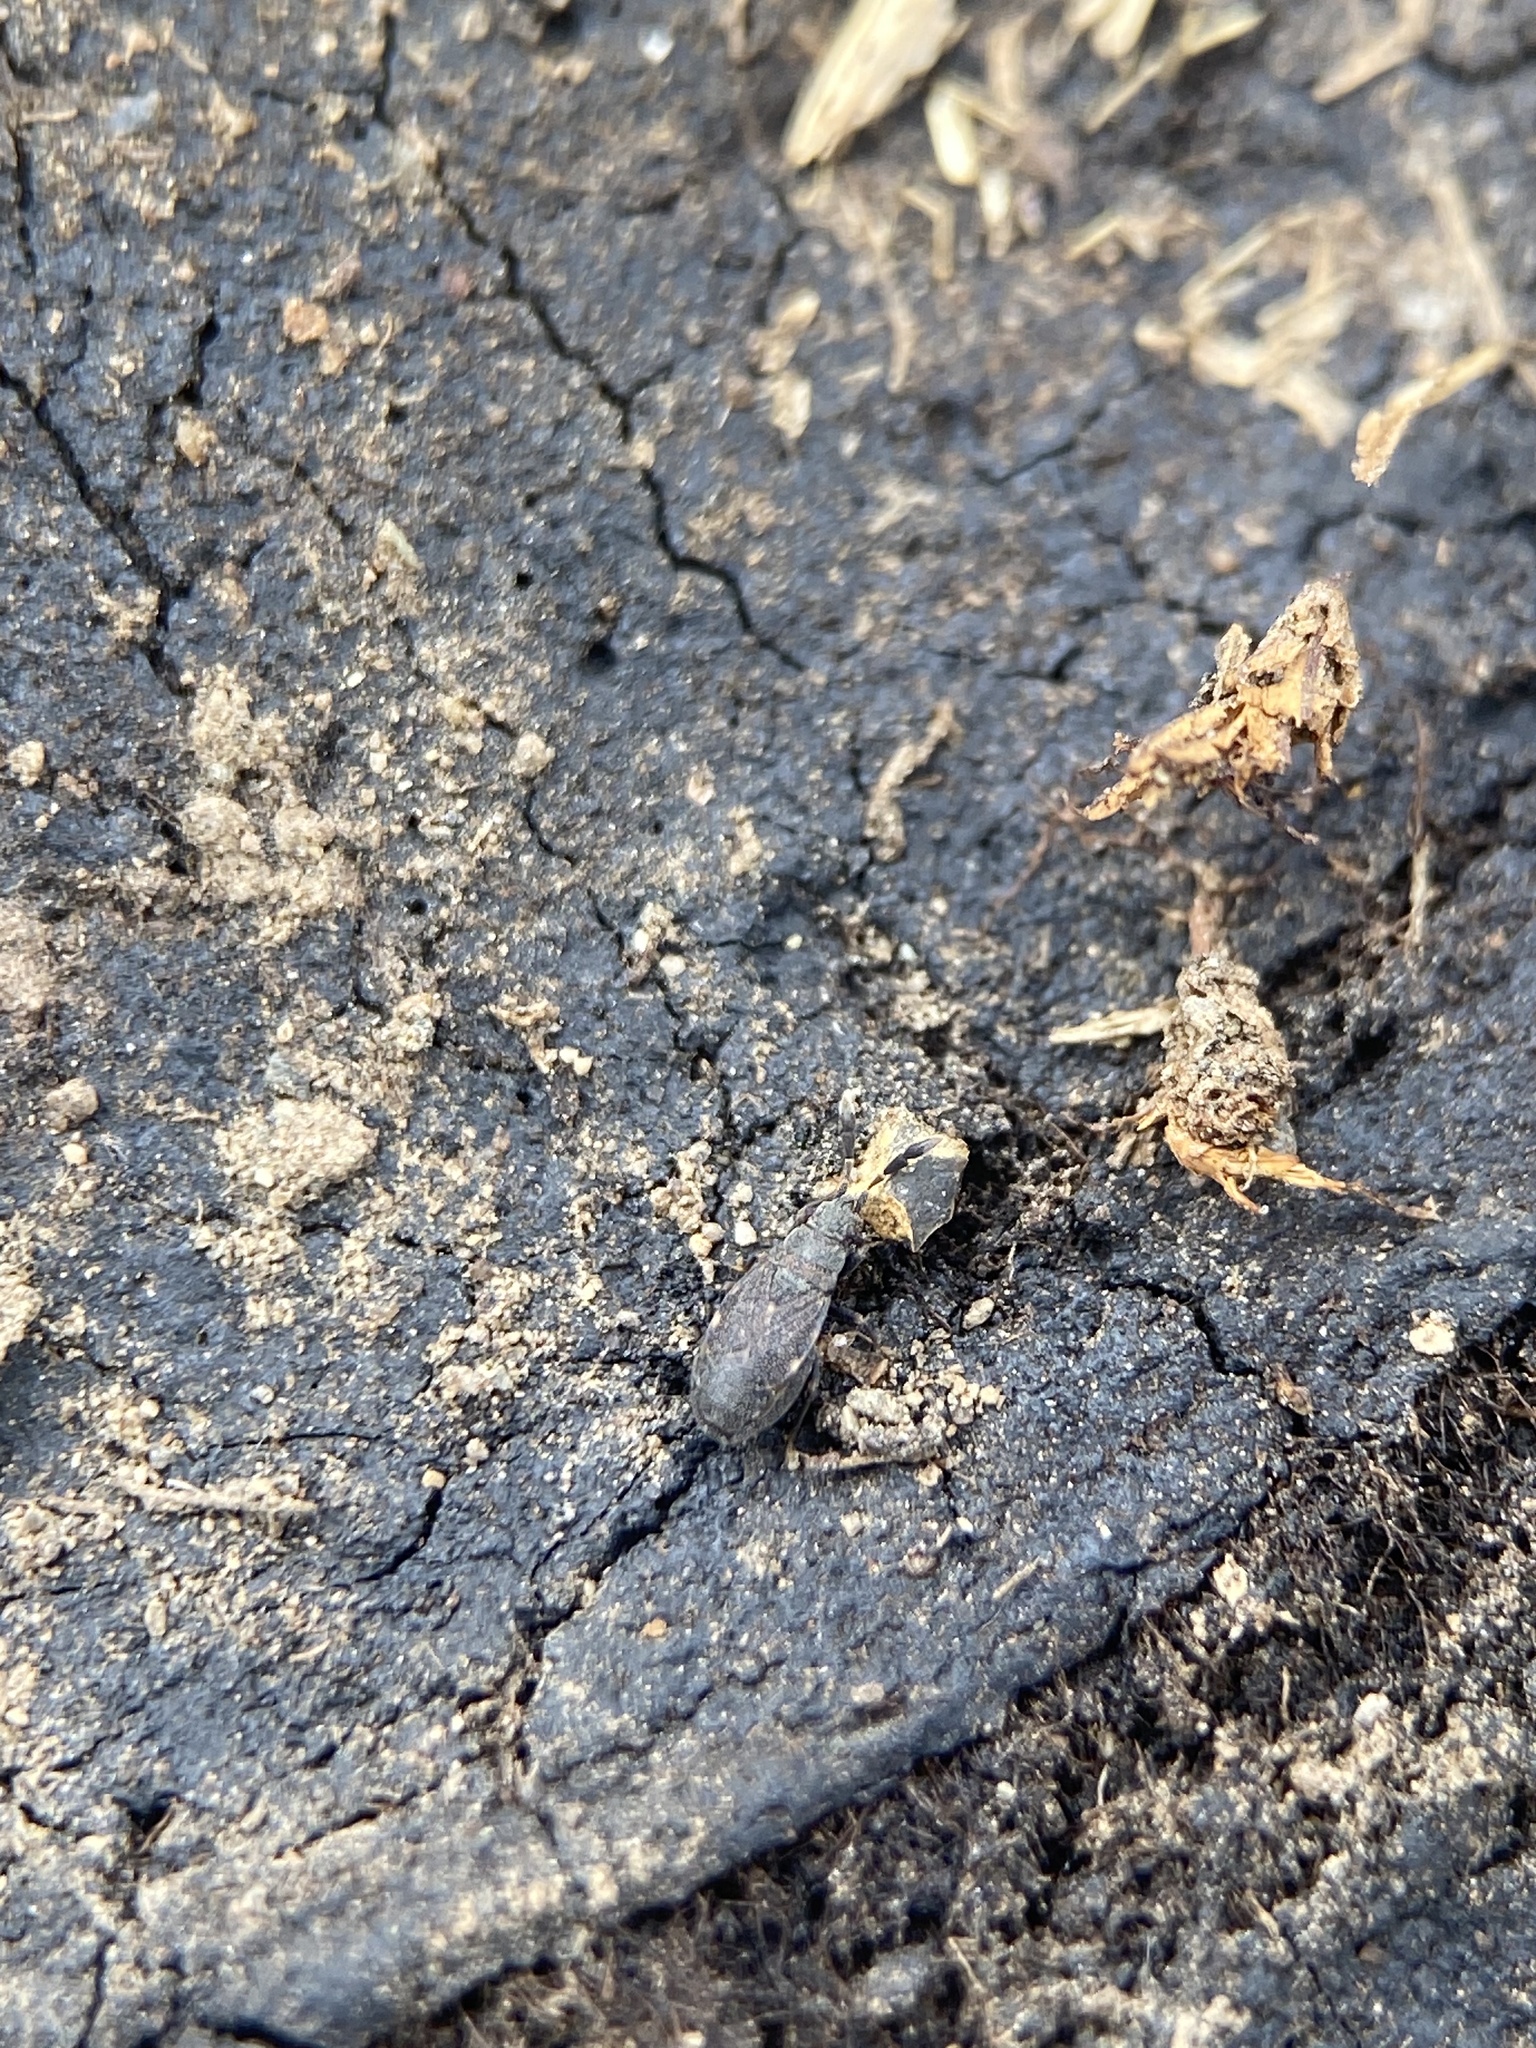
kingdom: Animalia
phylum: Arthropoda
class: Insecta
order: Hemiptera
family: Rhyparochromidae
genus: Sisamnes
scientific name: Sisamnes claviger
